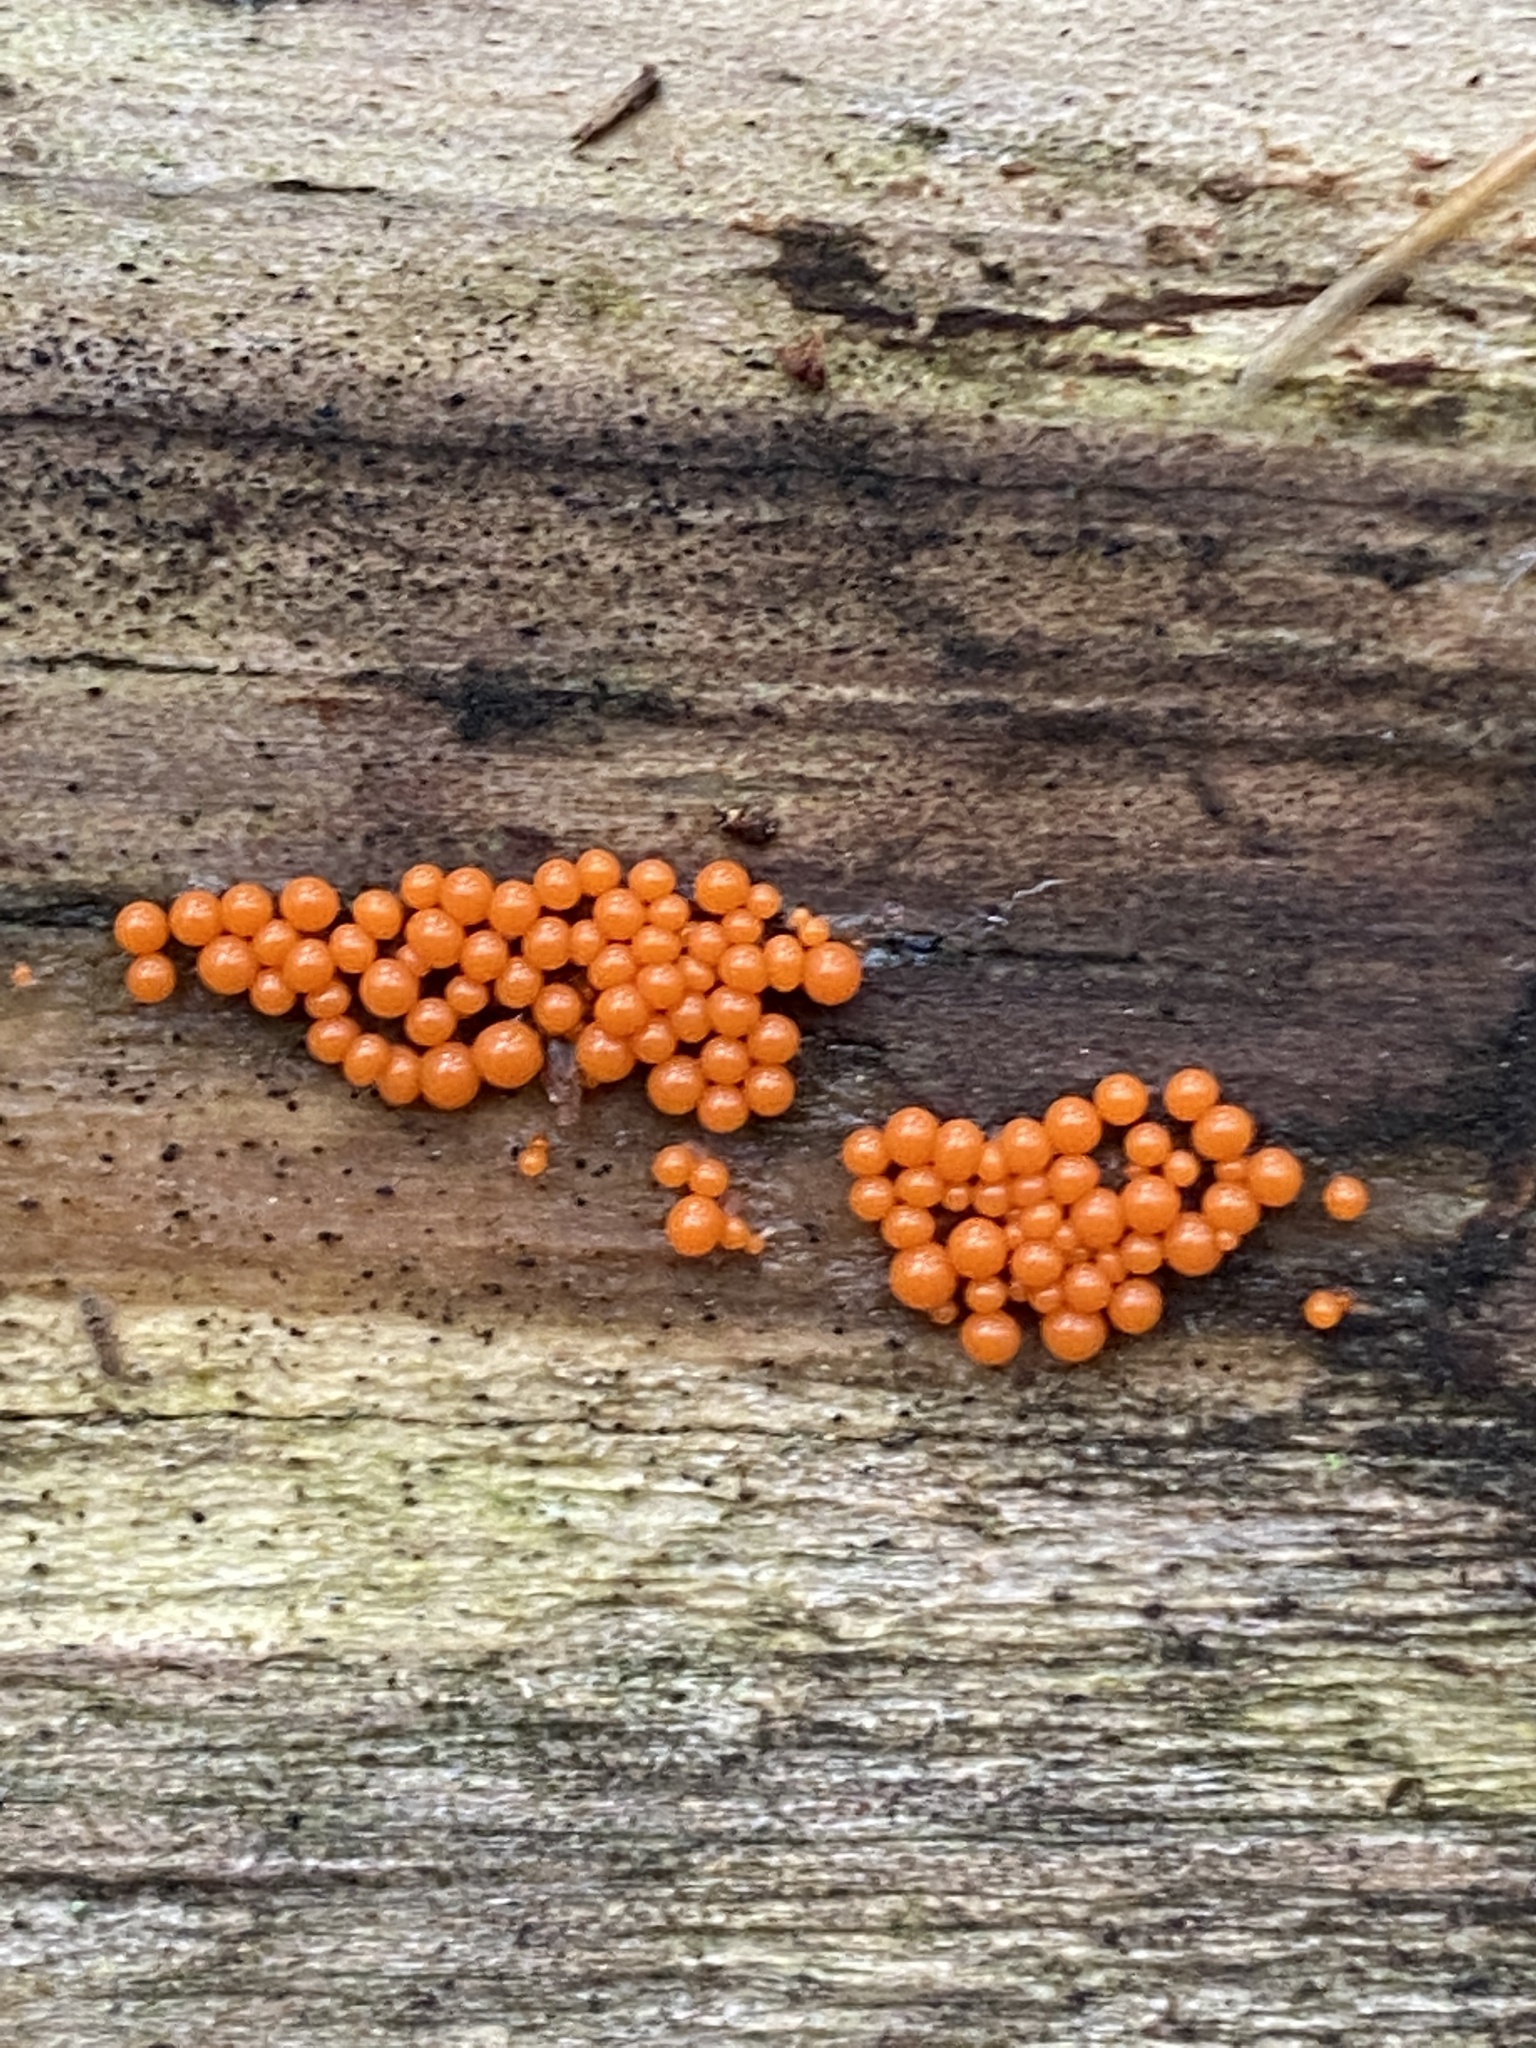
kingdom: Protozoa
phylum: Mycetozoa
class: Myxomycetes
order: Trichiales
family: Arcyriaceae
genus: Hemitrichia
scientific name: Hemitrichia decipiens
